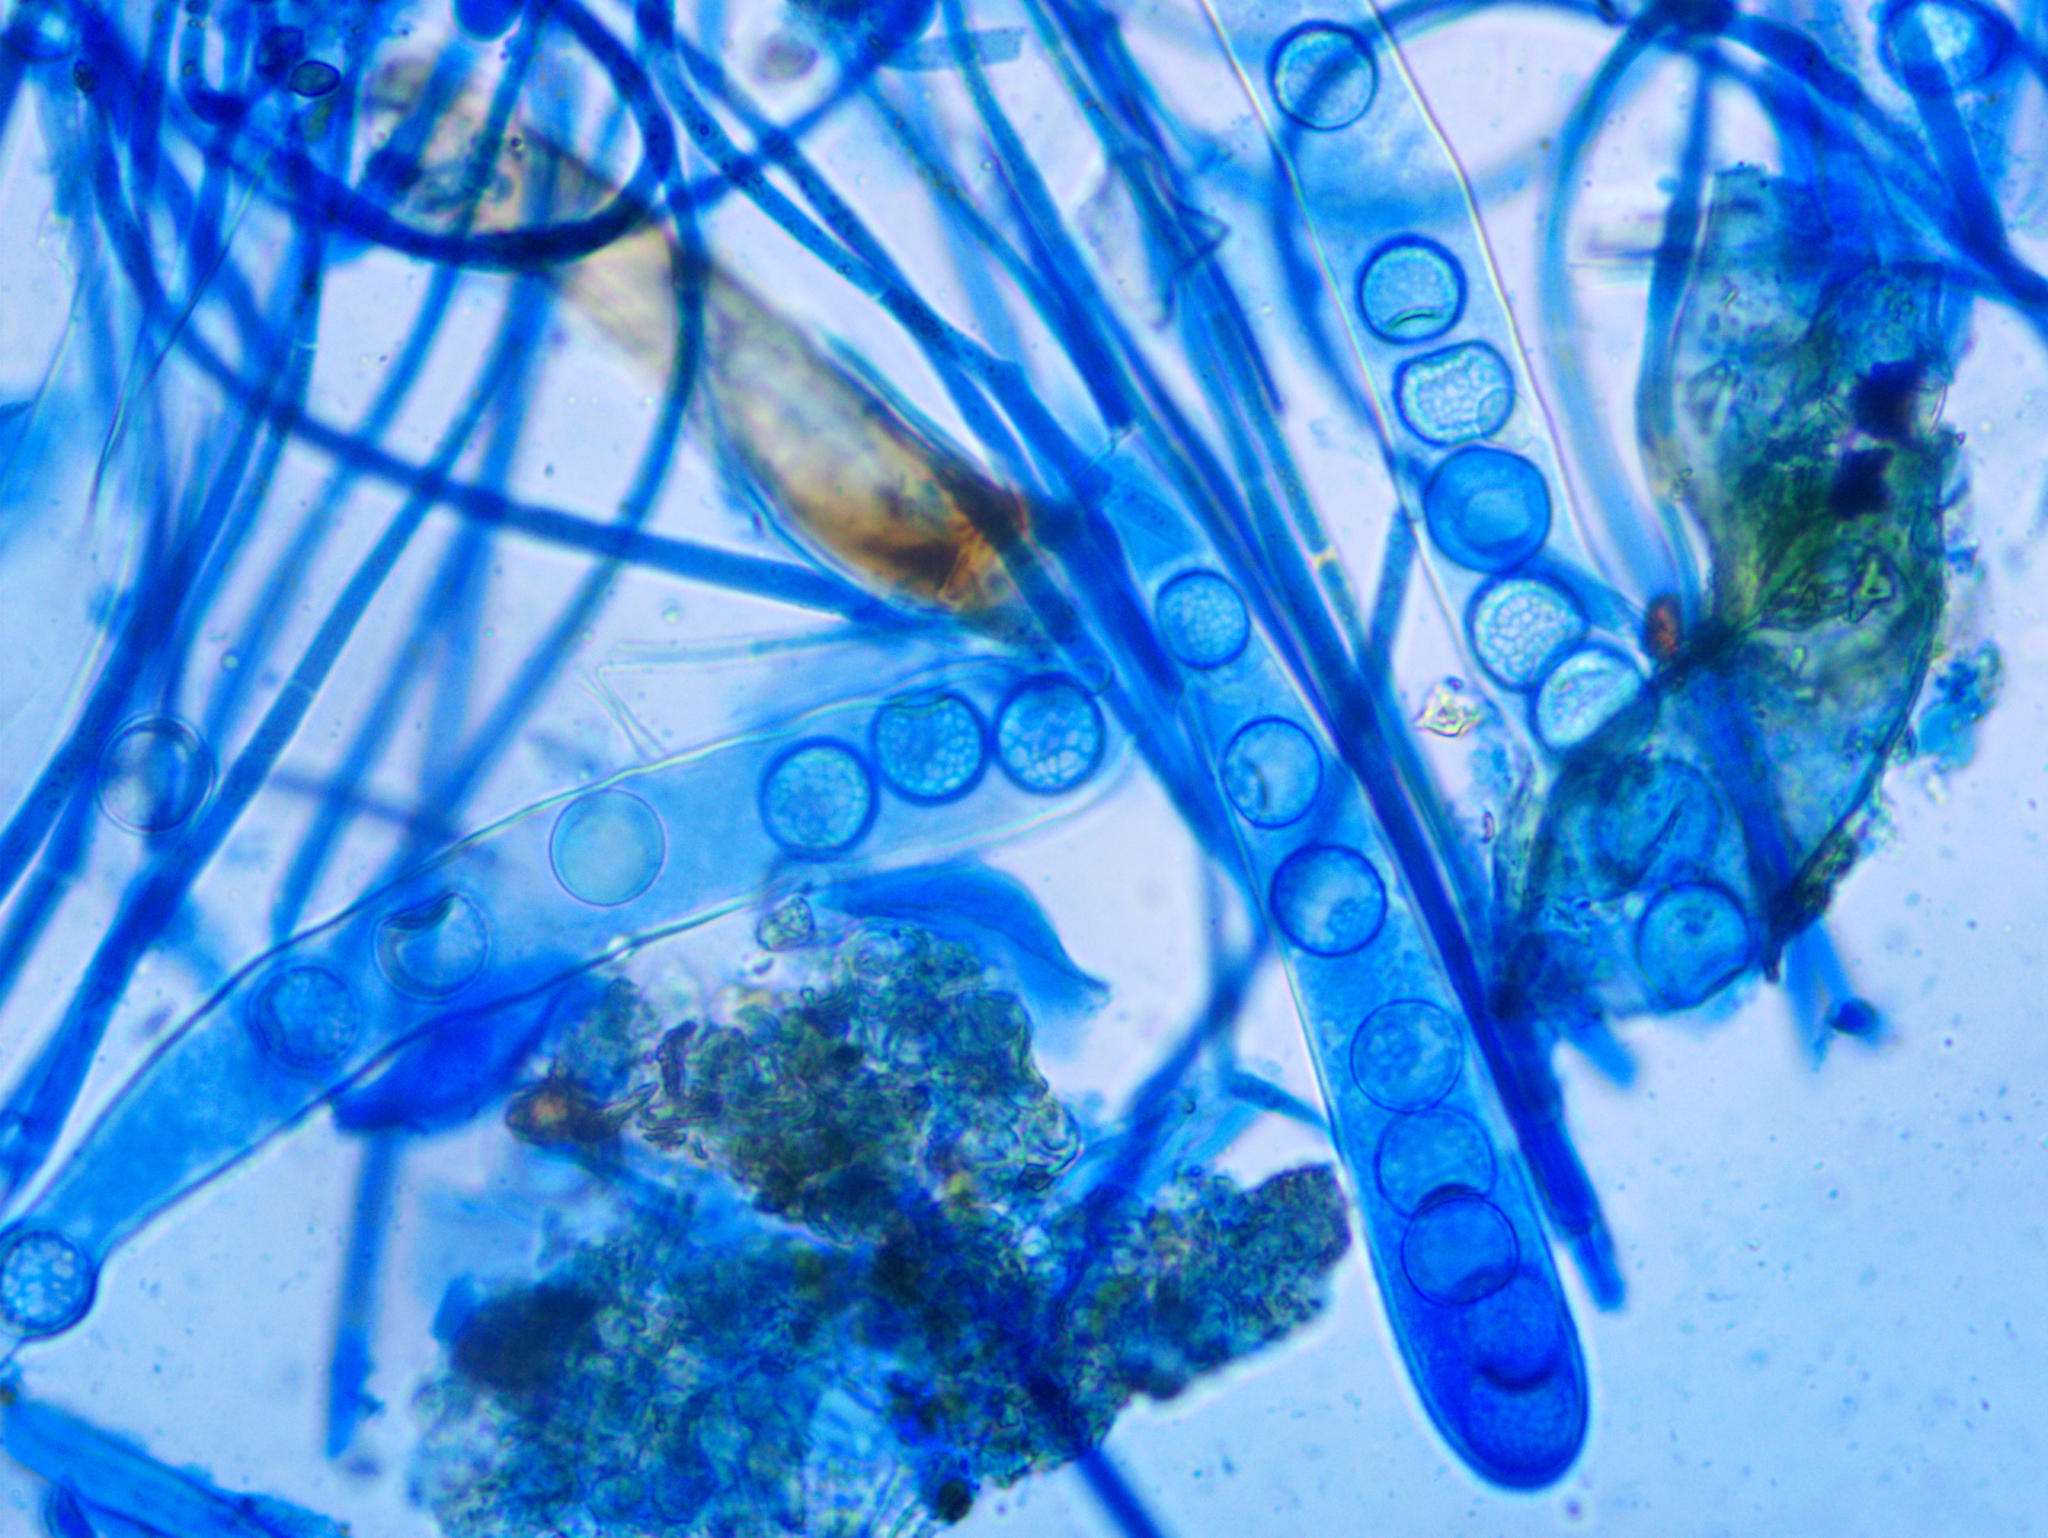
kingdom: Fungi
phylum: Ascomycota
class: Pezizomycetes
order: Pezizales
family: Pyronemataceae
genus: Octospora
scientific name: Octospora feurichiana
